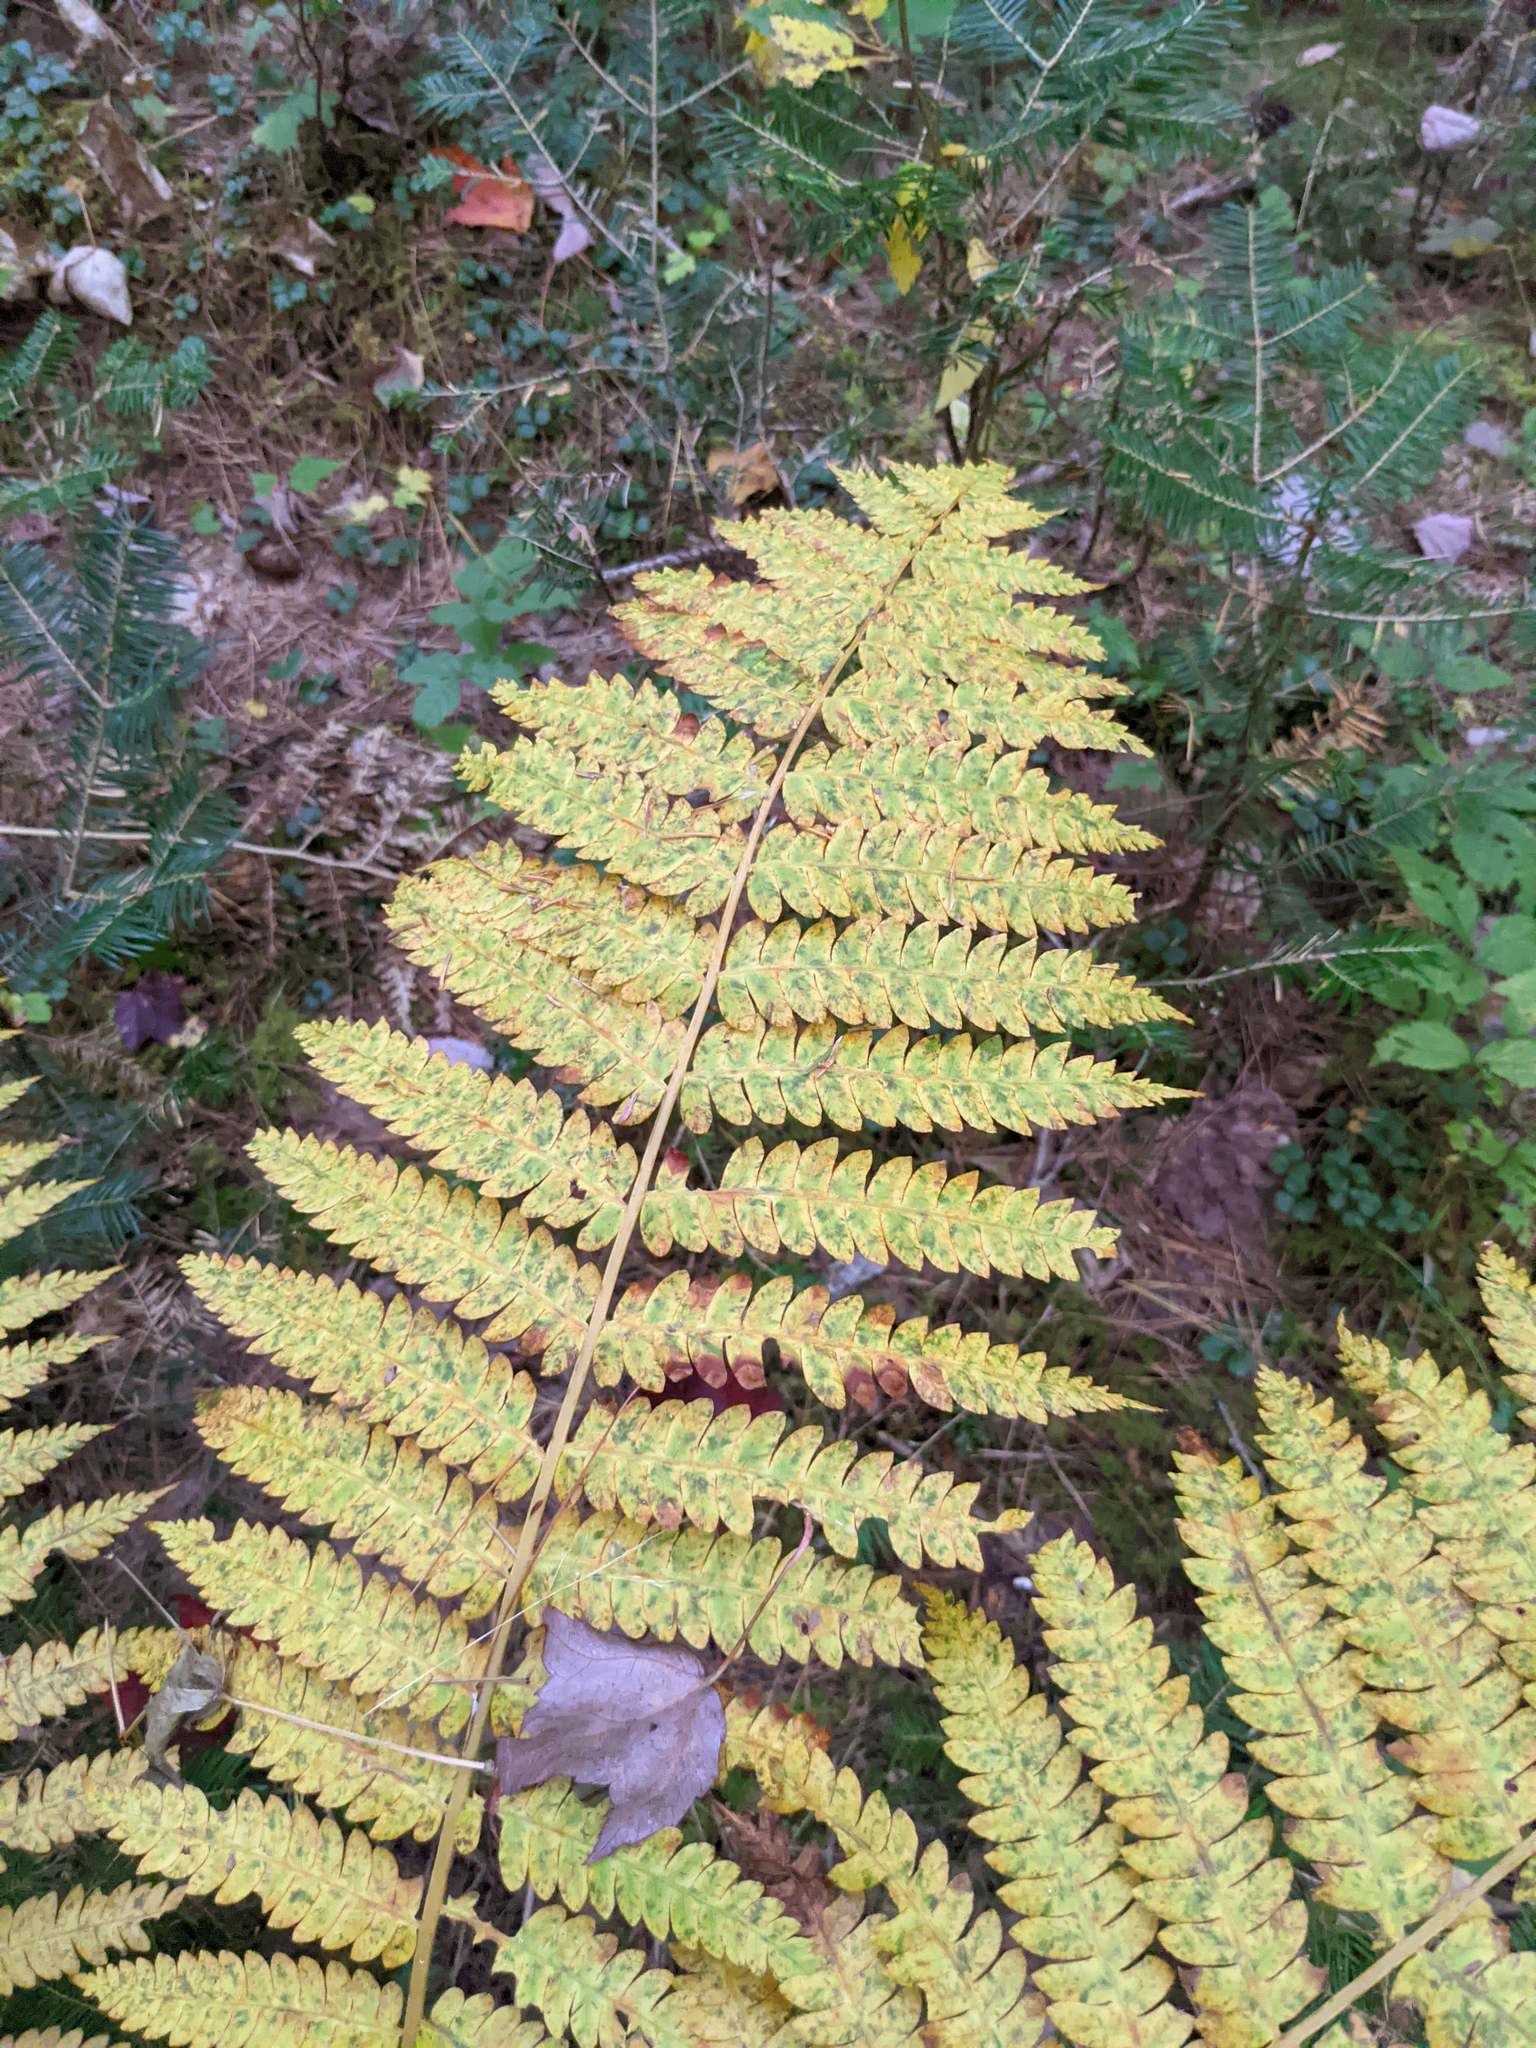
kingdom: Plantae
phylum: Tracheophyta
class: Polypodiopsida
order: Osmundales
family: Osmundaceae
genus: Osmundastrum
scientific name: Osmundastrum cinnamomeum
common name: Cinnamon fern
